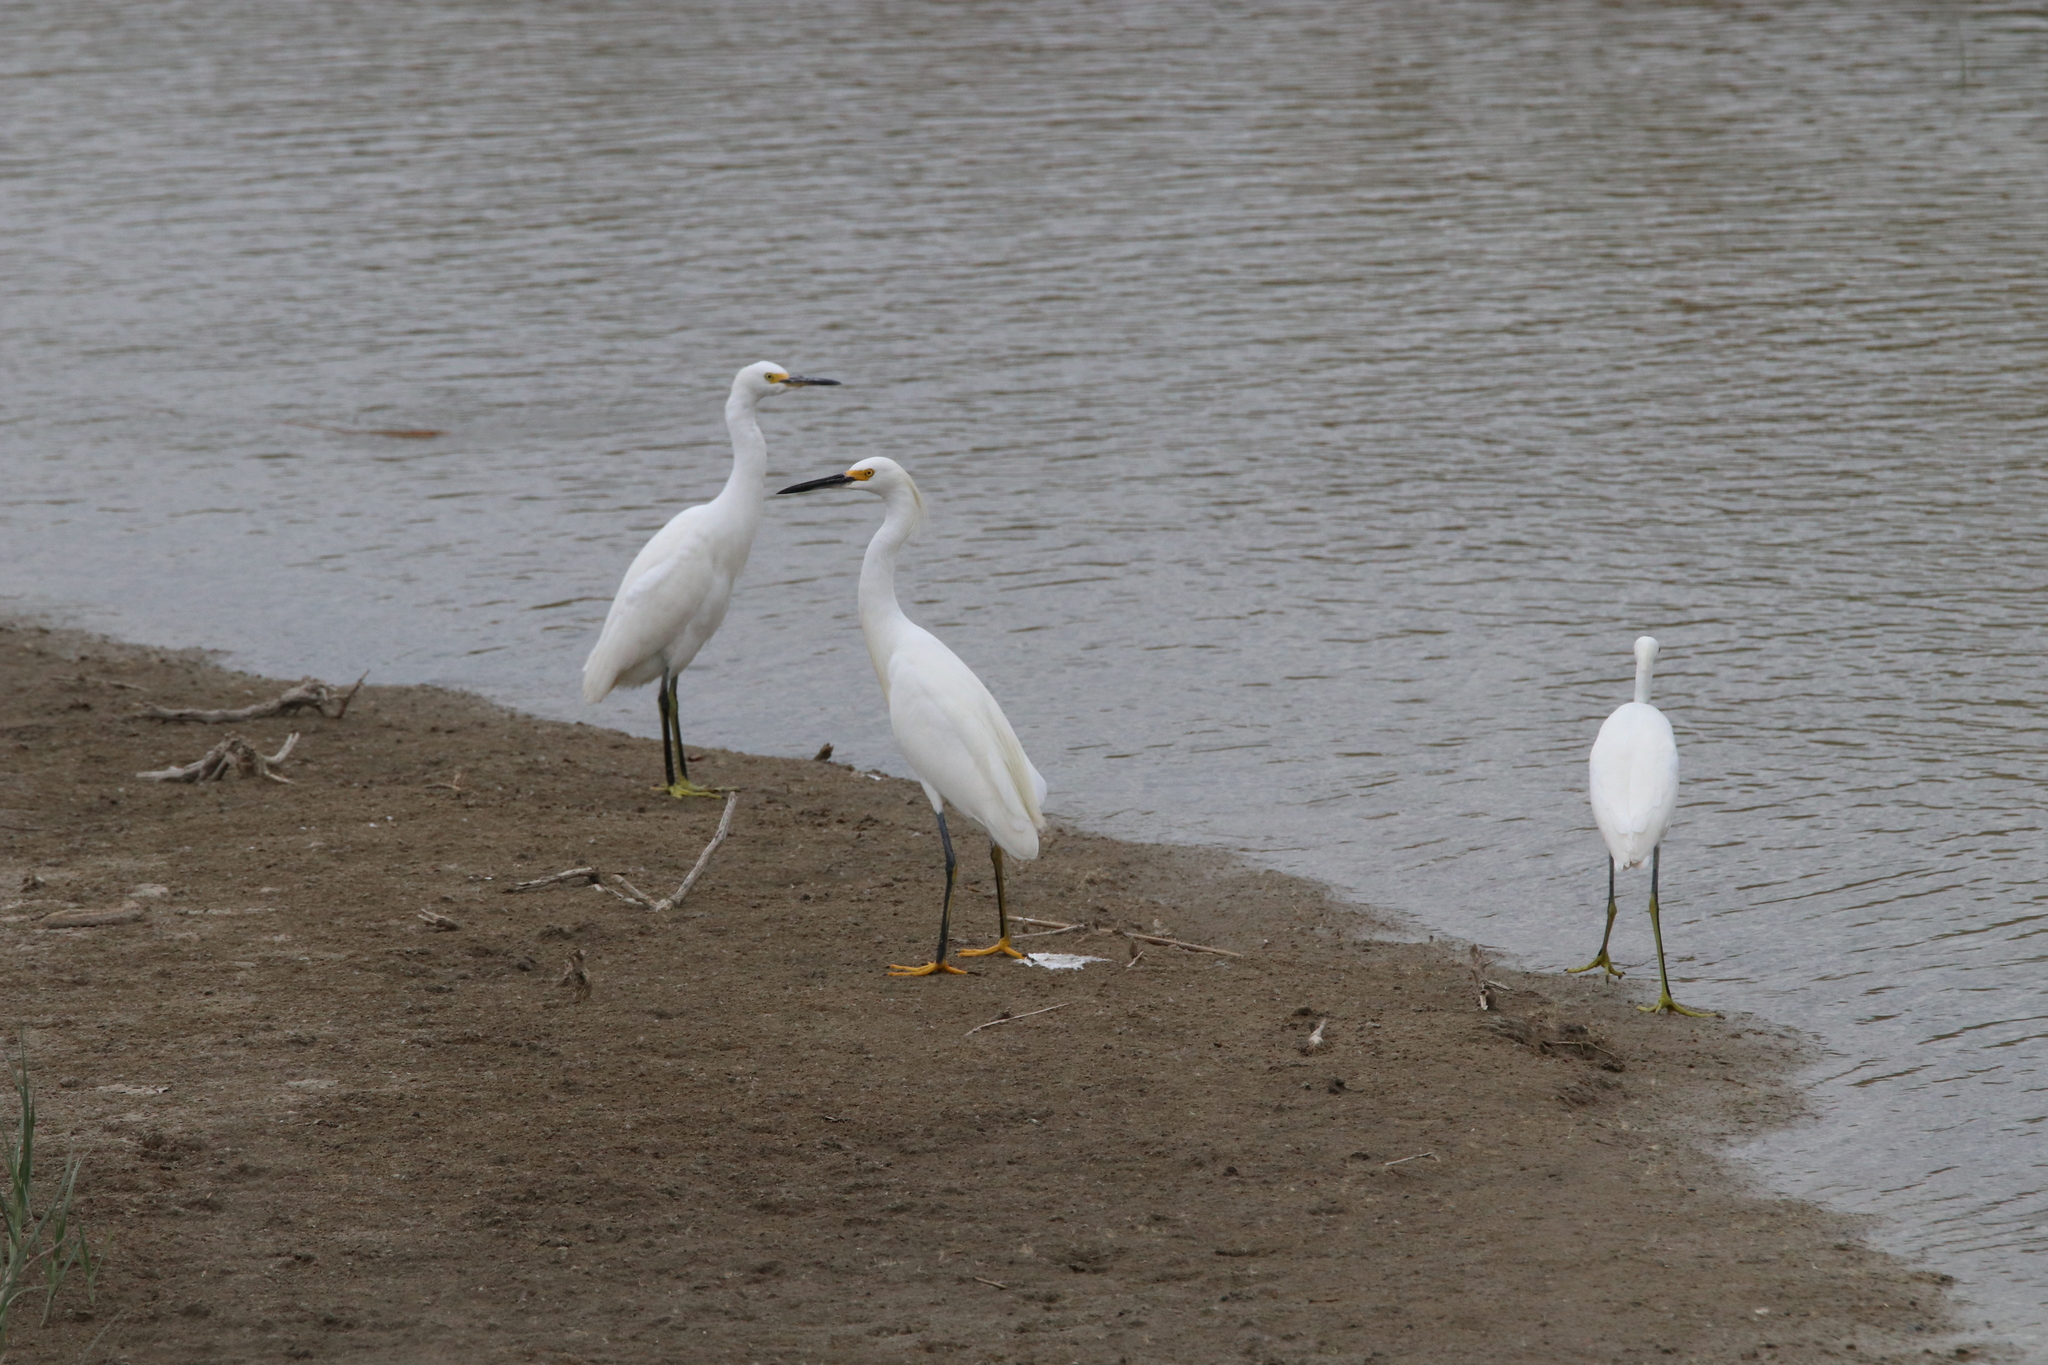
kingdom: Animalia
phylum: Chordata
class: Aves
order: Pelecaniformes
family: Ardeidae
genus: Egretta
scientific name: Egretta thula
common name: Snowy egret
